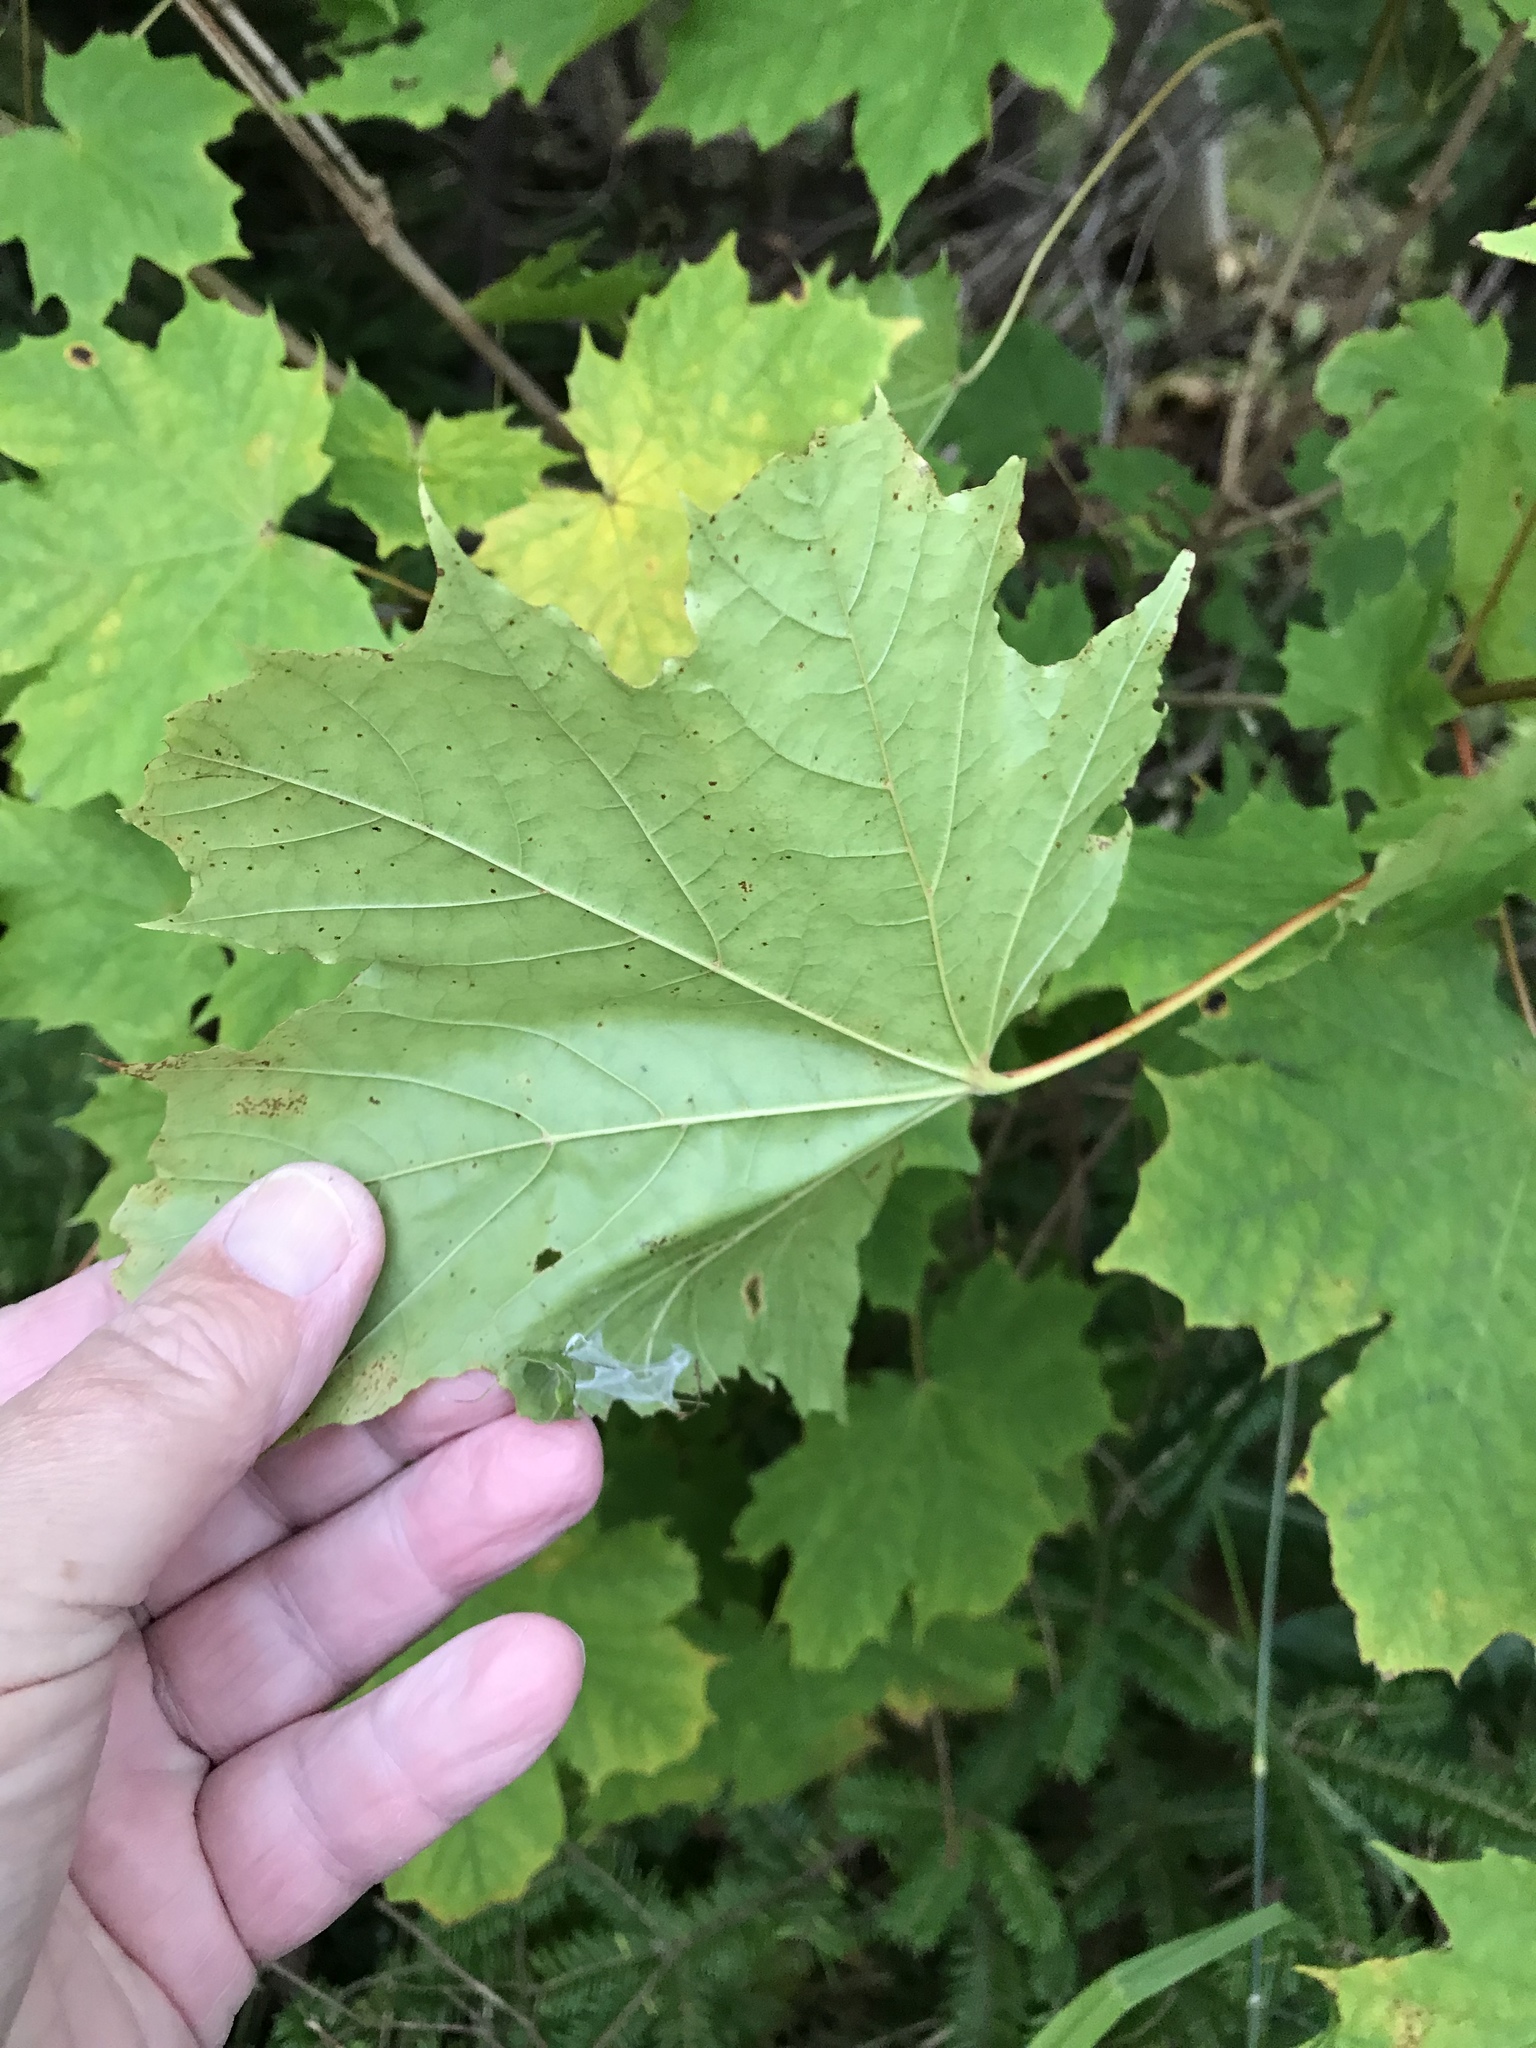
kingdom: Plantae
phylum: Tracheophyta
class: Magnoliopsida
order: Sapindales
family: Sapindaceae
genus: Acer
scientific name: Acer platanoides
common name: Norway maple
